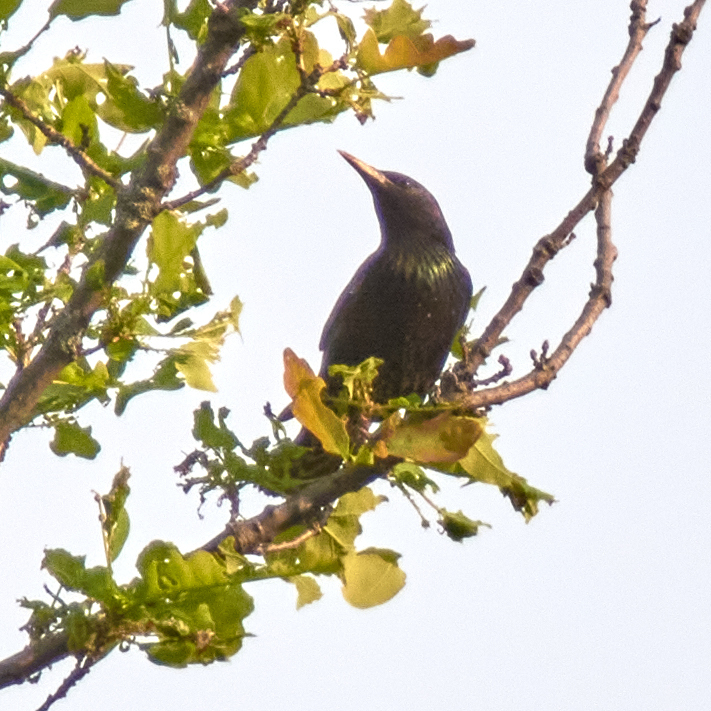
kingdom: Animalia
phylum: Chordata
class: Aves
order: Passeriformes
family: Sturnidae
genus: Sturnus
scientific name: Sturnus vulgaris
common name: Common starling
